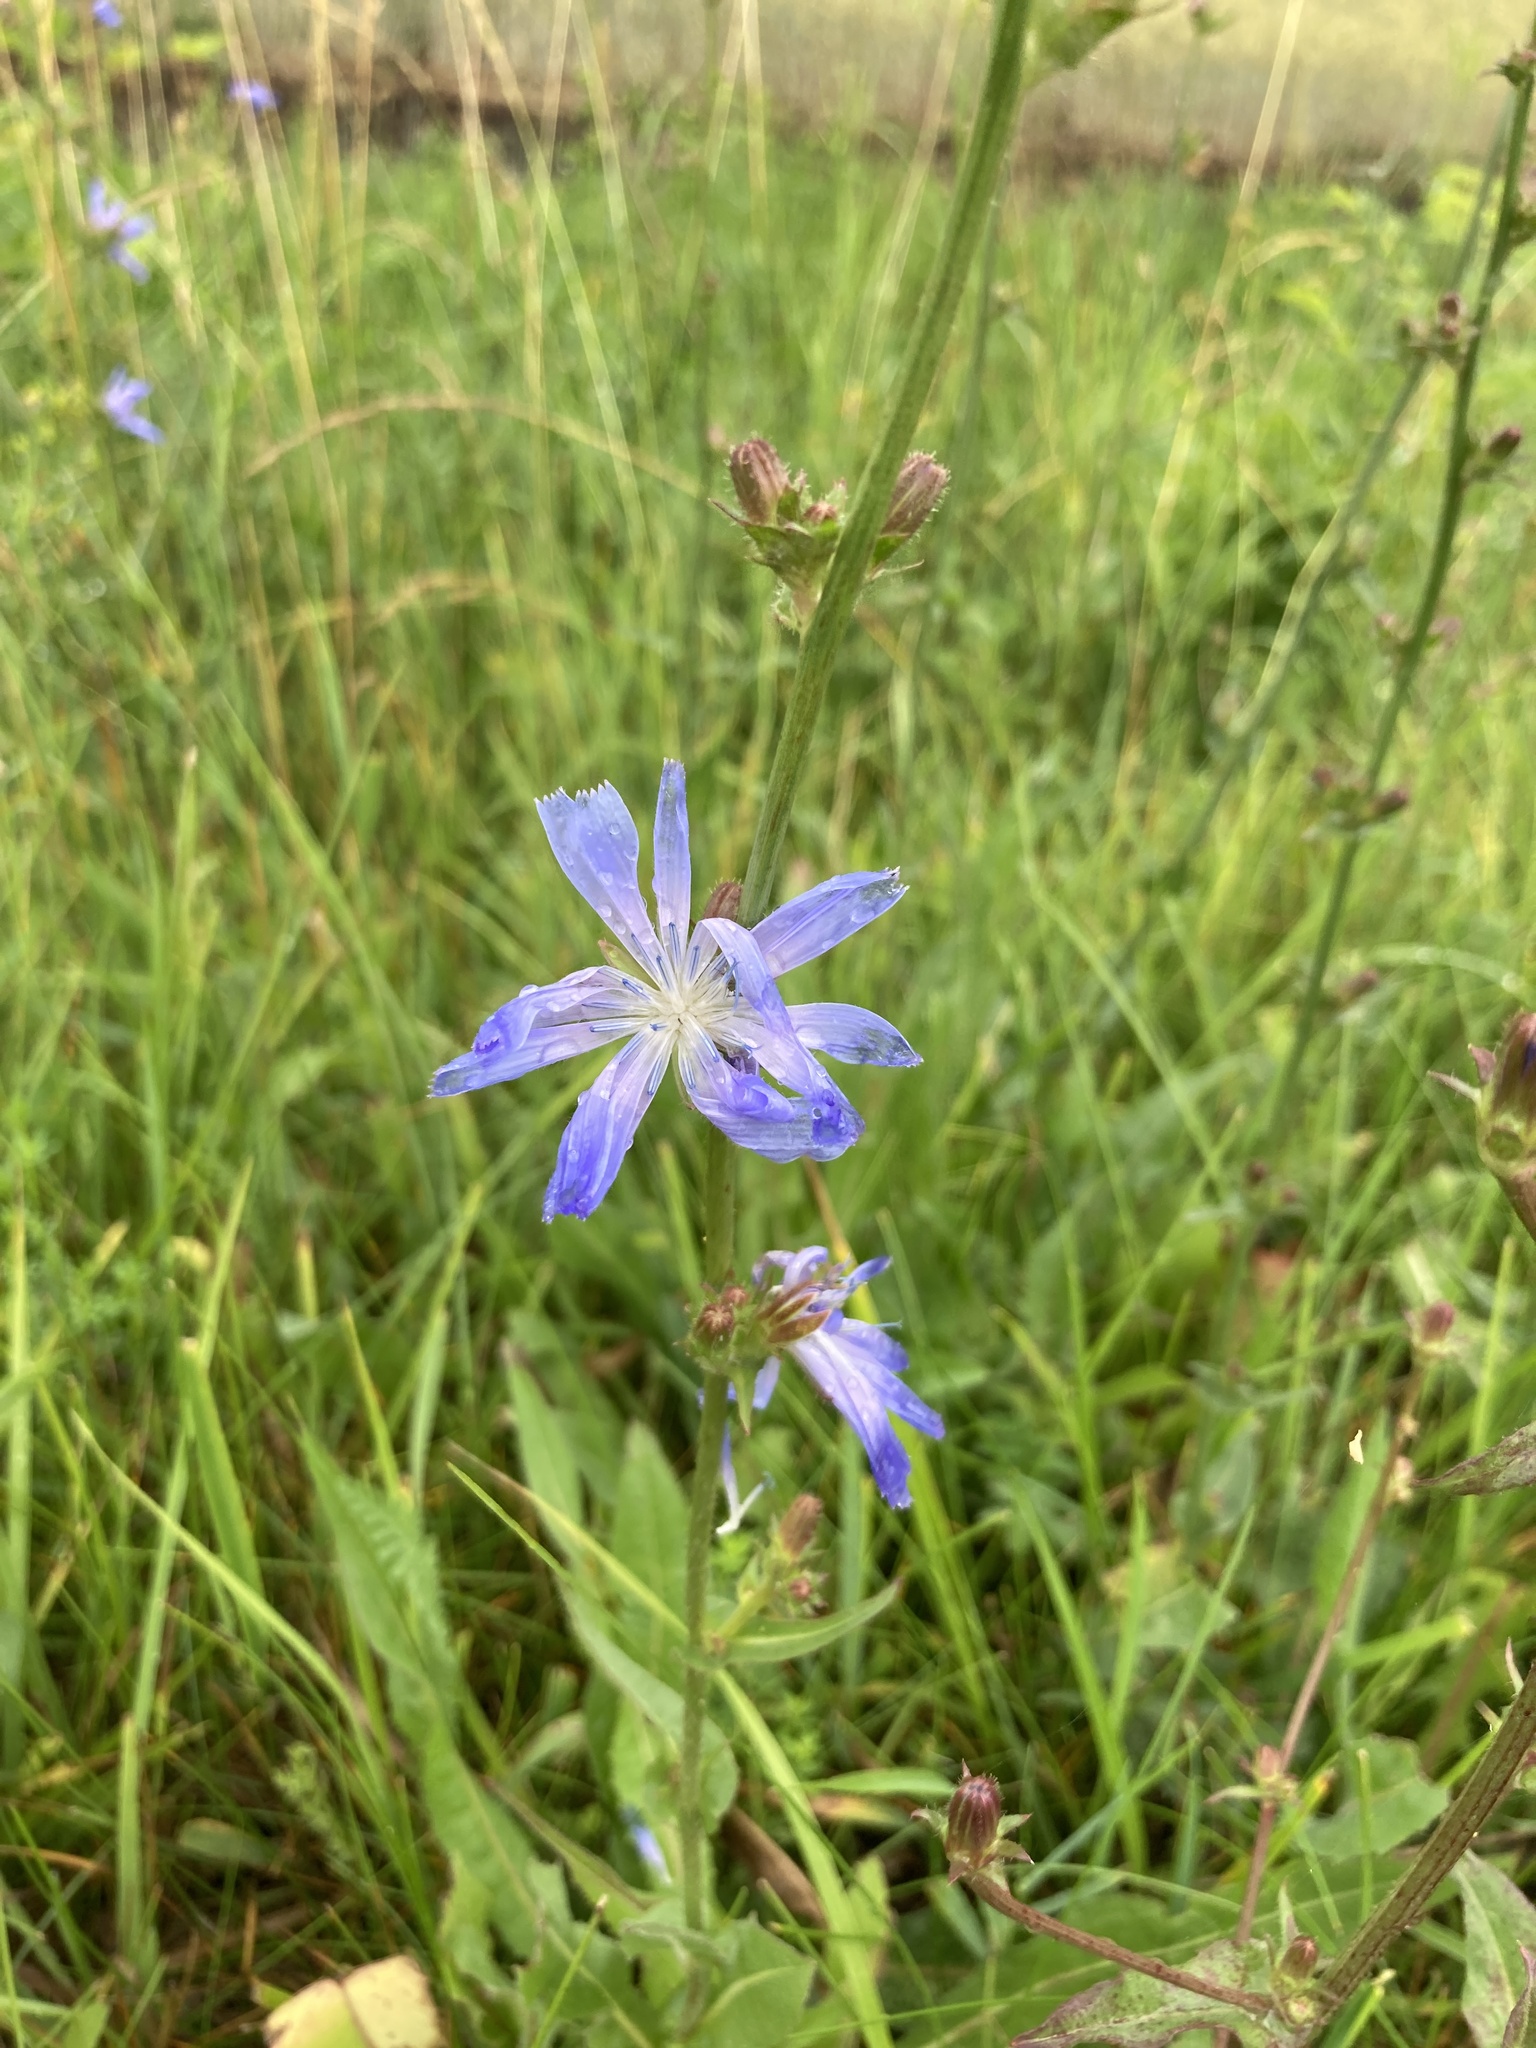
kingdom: Plantae
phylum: Tracheophyta
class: Magnoliopsida
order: Asterales
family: Asteraceae
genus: Cichorium
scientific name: Cichorium intybus
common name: Chicory
